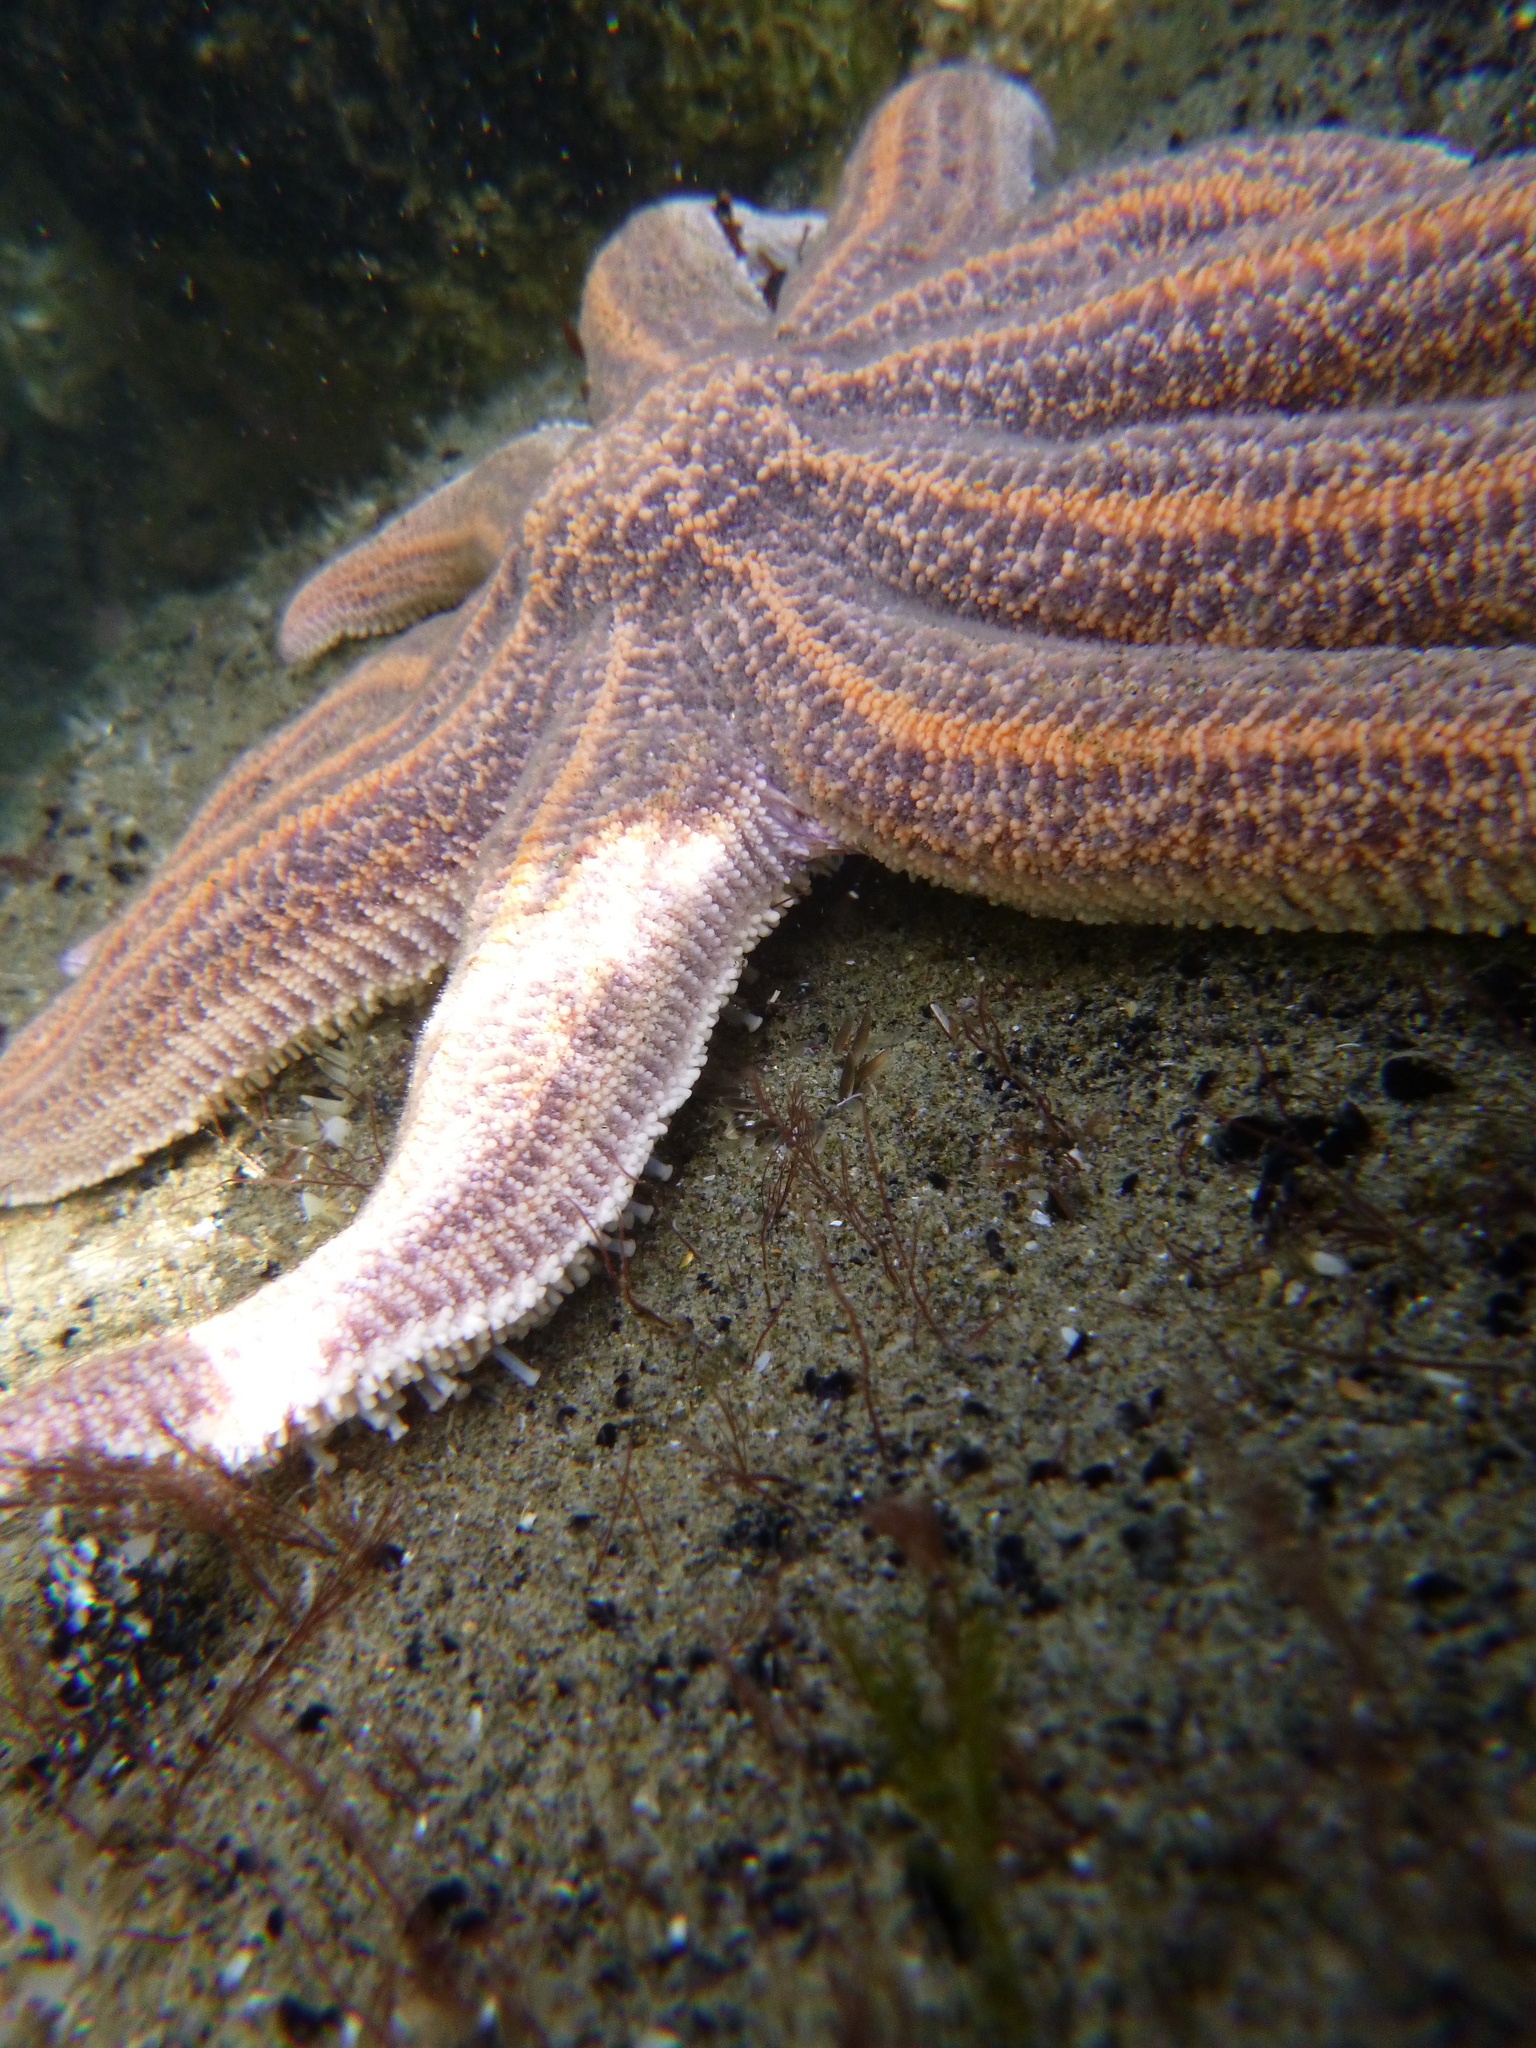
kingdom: Animalia
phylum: Echinodermata
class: Asteroidea
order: Forcipulatida
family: Stichasteridae
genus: Stichaster
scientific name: Stichaster australis
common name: Reef starfish
